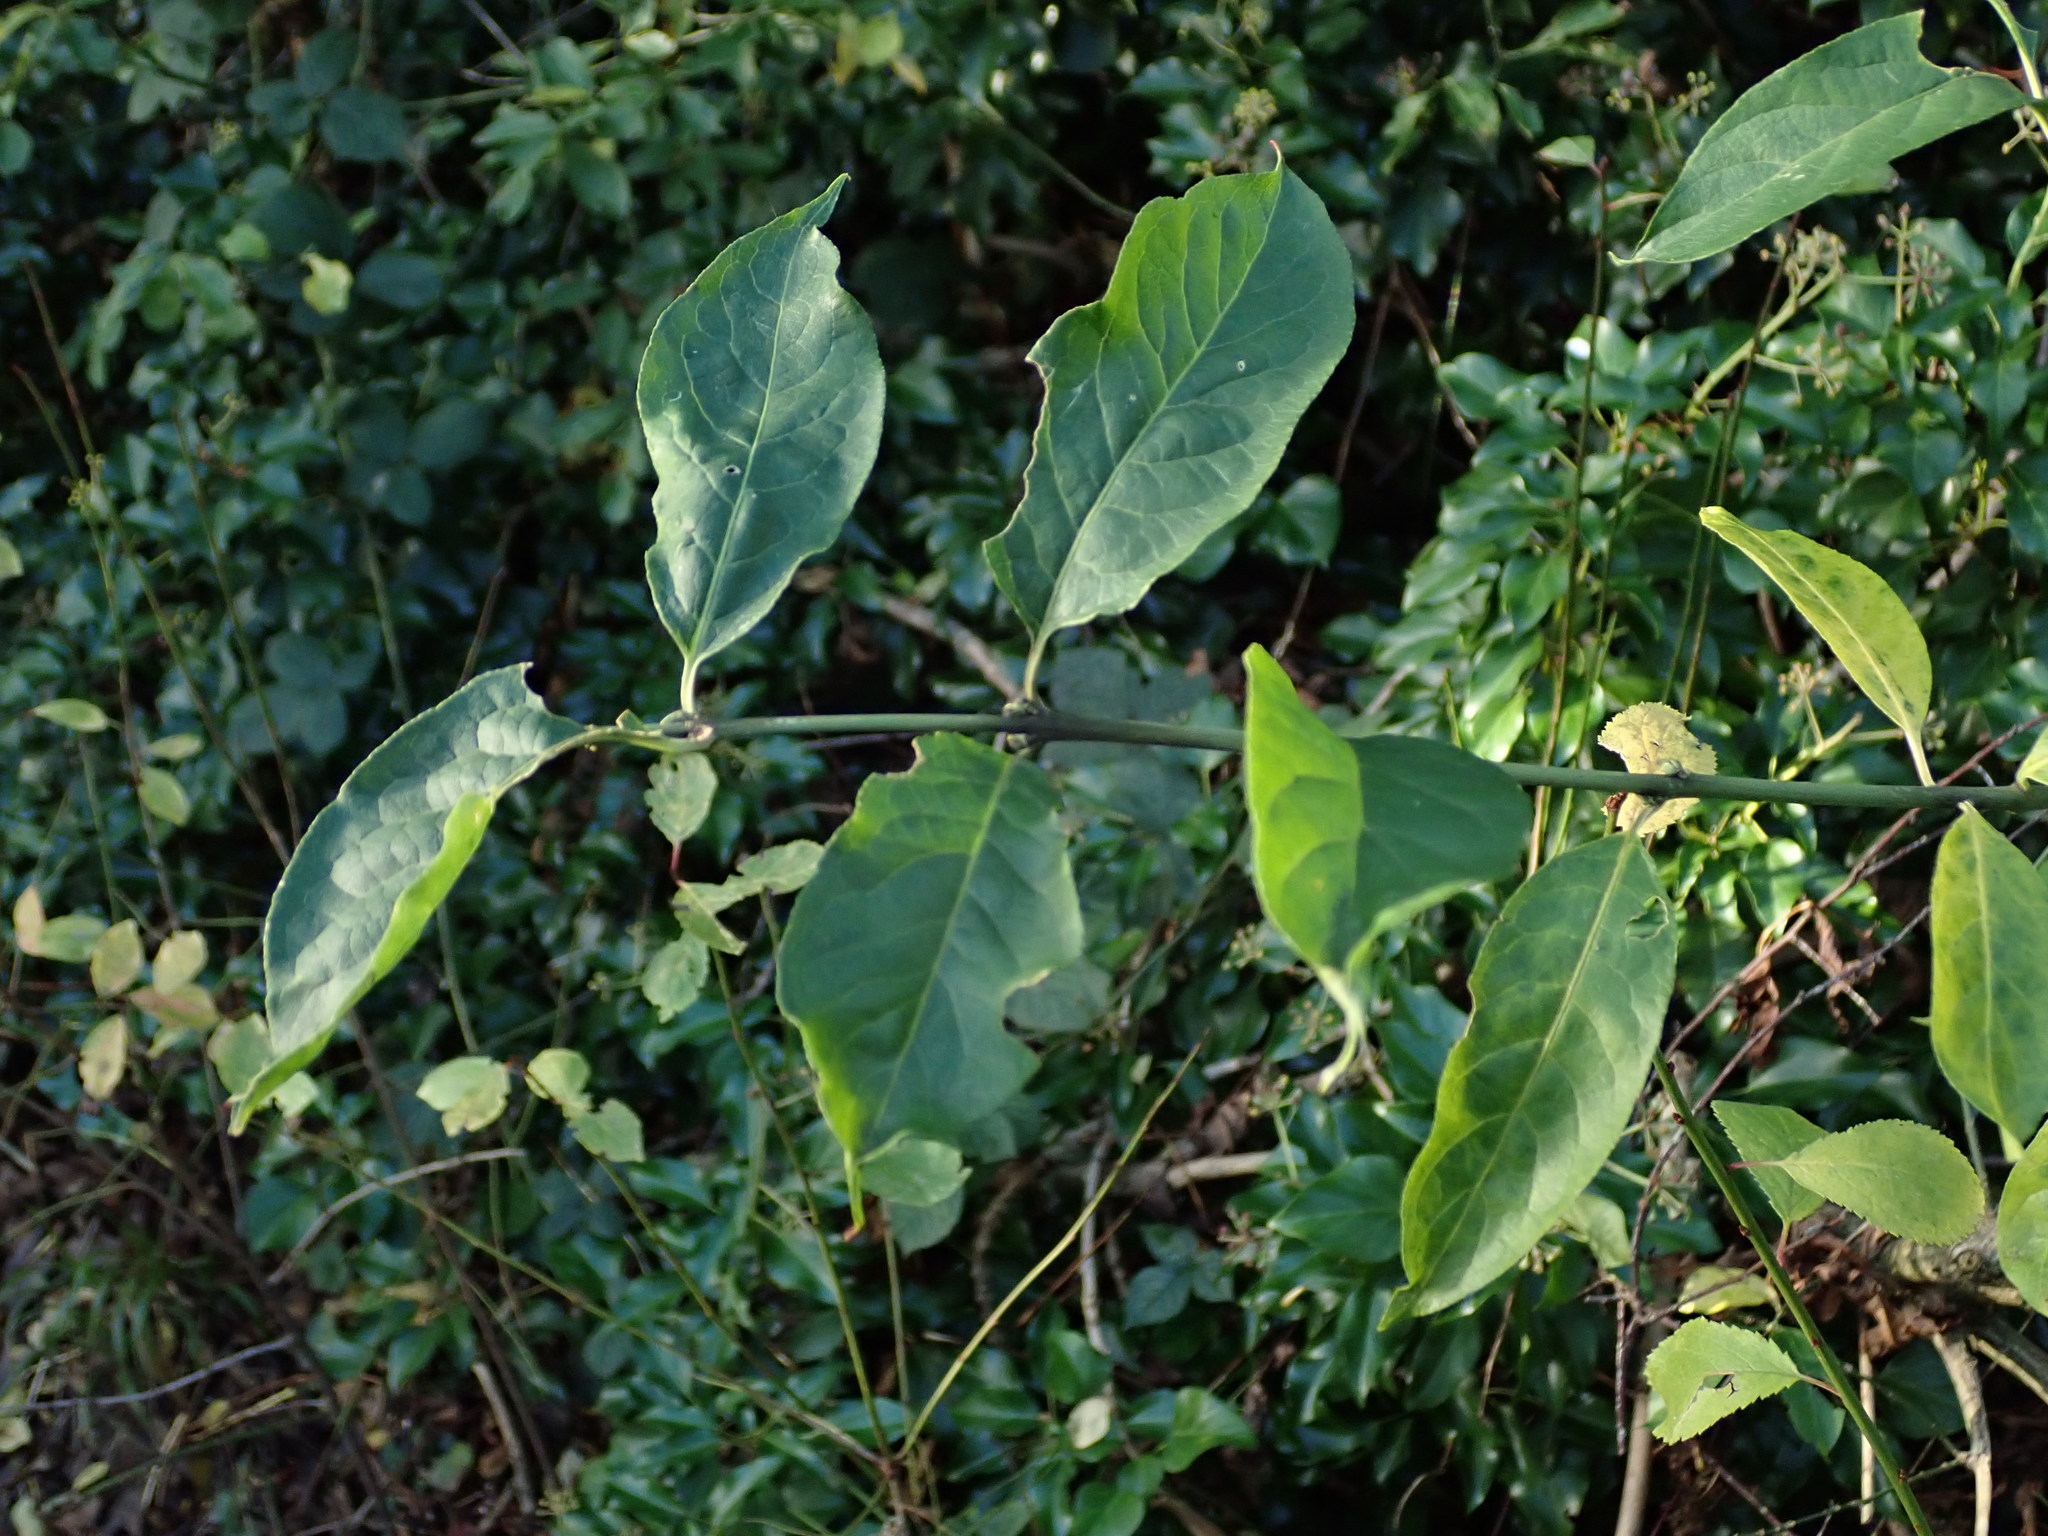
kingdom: Plantae
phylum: Tracheophyta
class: Magnoliopsida
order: Celastrales
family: Celastraceae
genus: Euonymus
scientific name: Euonymus europaeus
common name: Spindle
